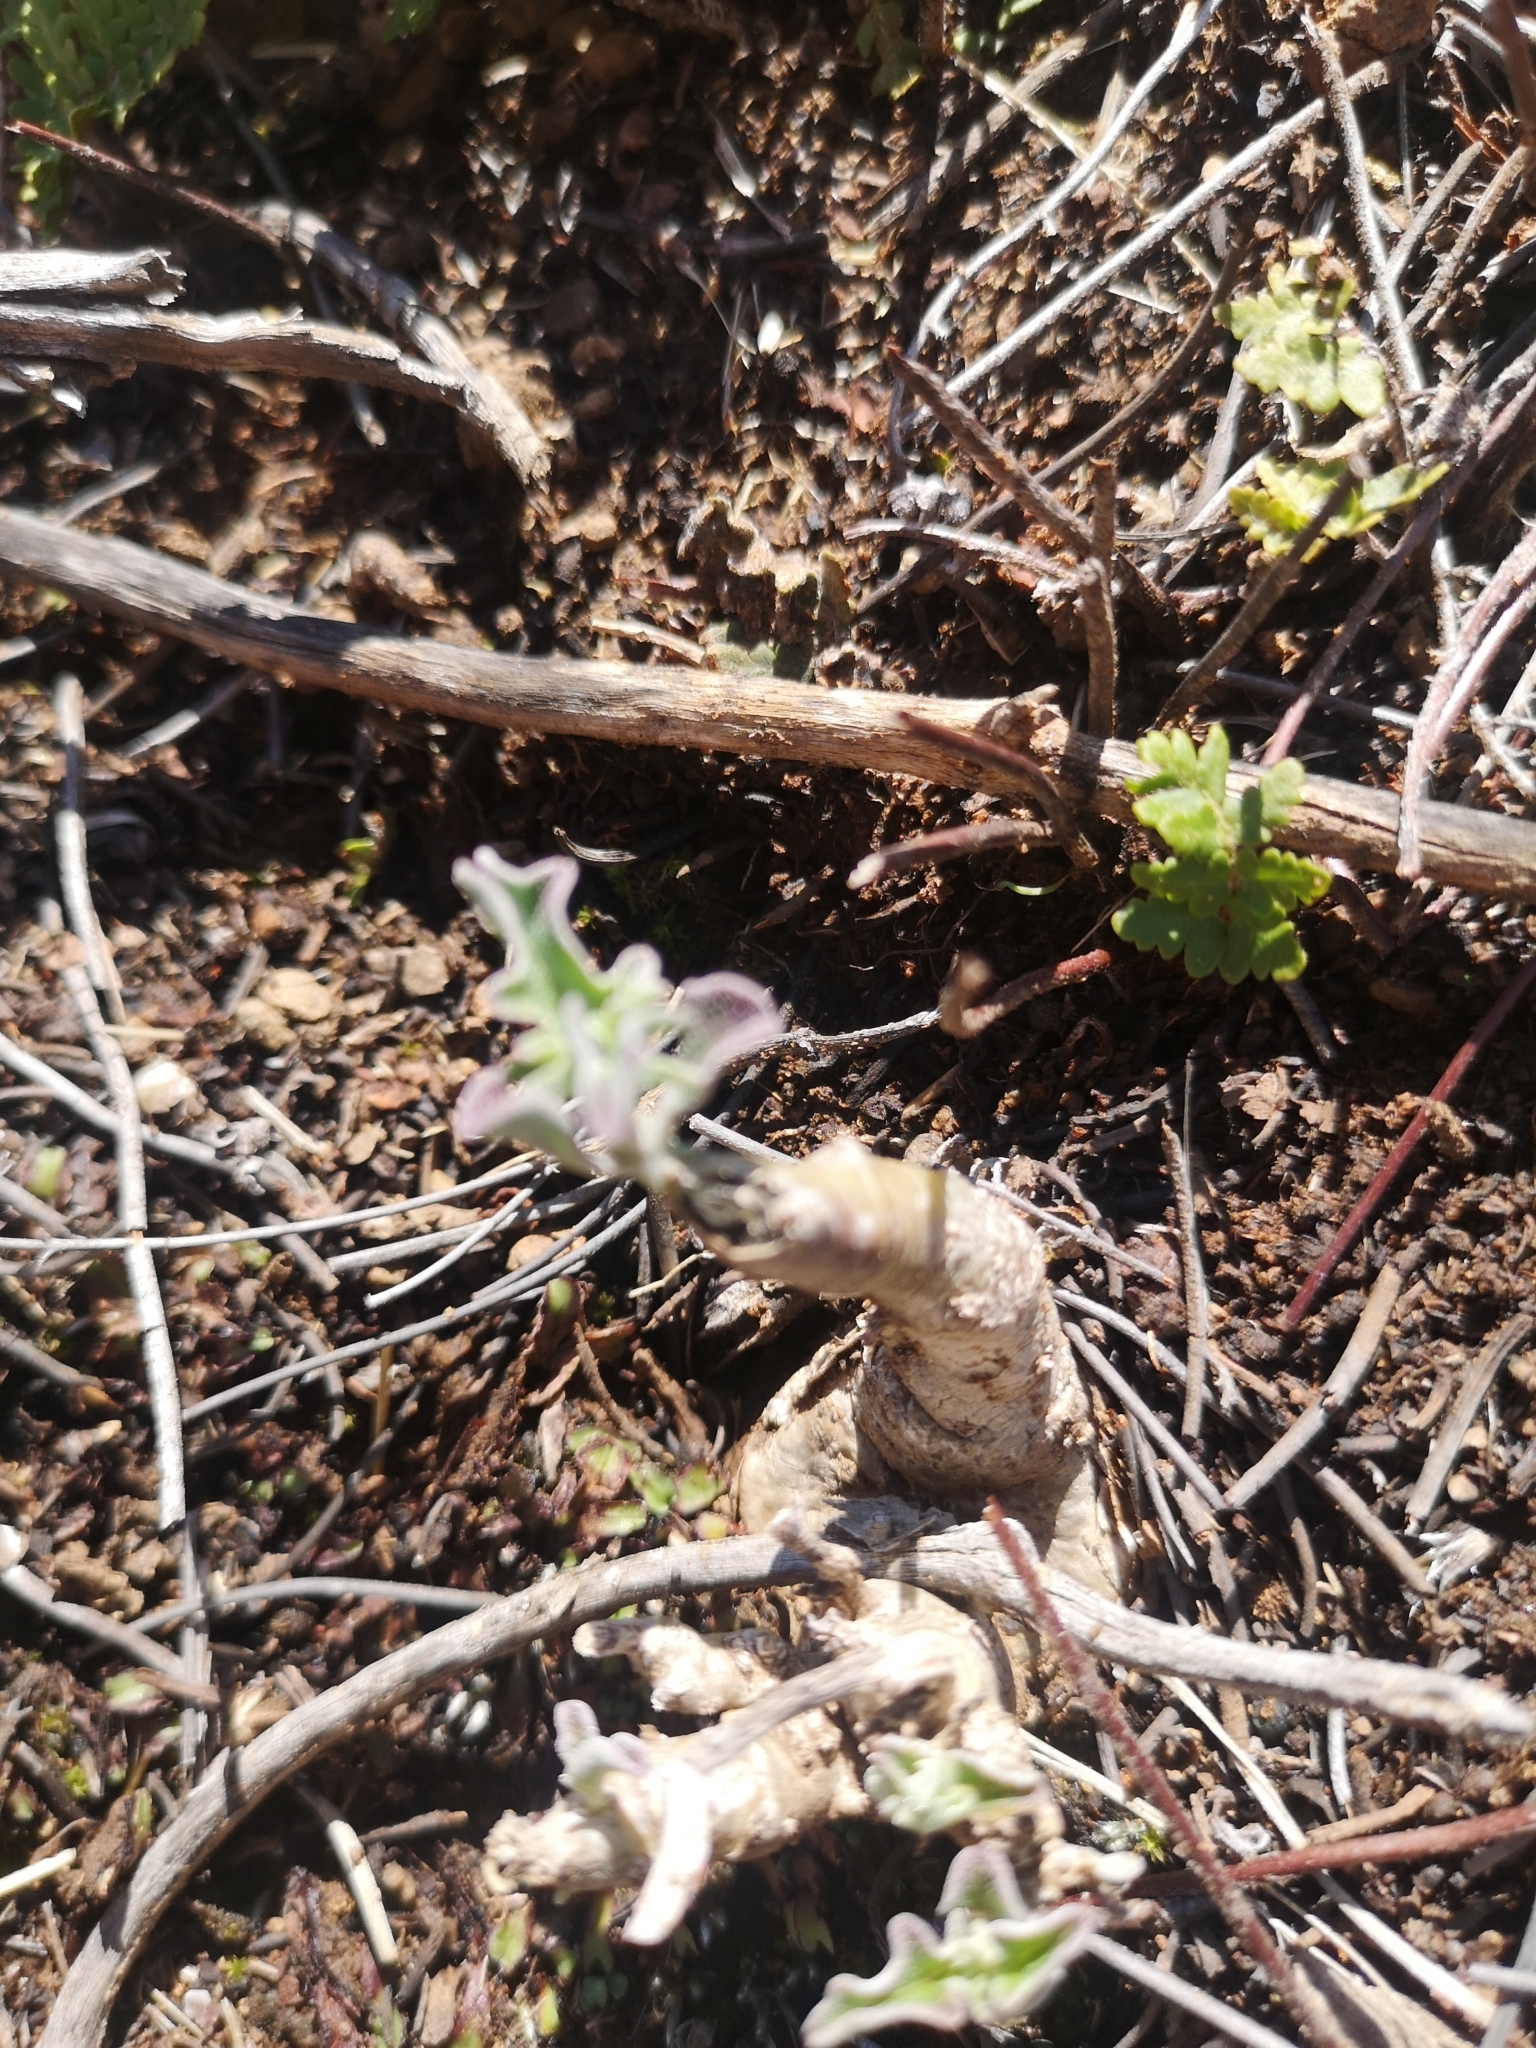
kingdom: Plantae
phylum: Tracheophyta
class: Magnoliopsida
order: Lamiales
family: Pedaliaceae
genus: Pterodiscus
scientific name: Pterodiscus luridus
